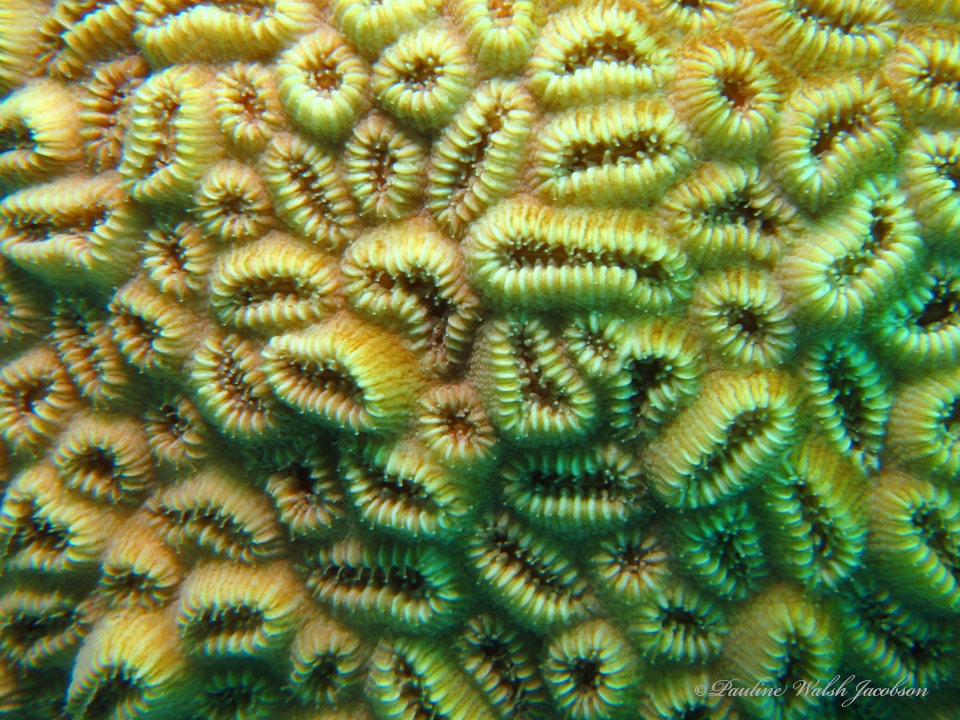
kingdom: Animalia
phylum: Cnidaria
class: Anthozoa
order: Scleractinia
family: Meandrinidae
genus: Dichocoenia
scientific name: Dichocoenia stokesii
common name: Pineapple coral
